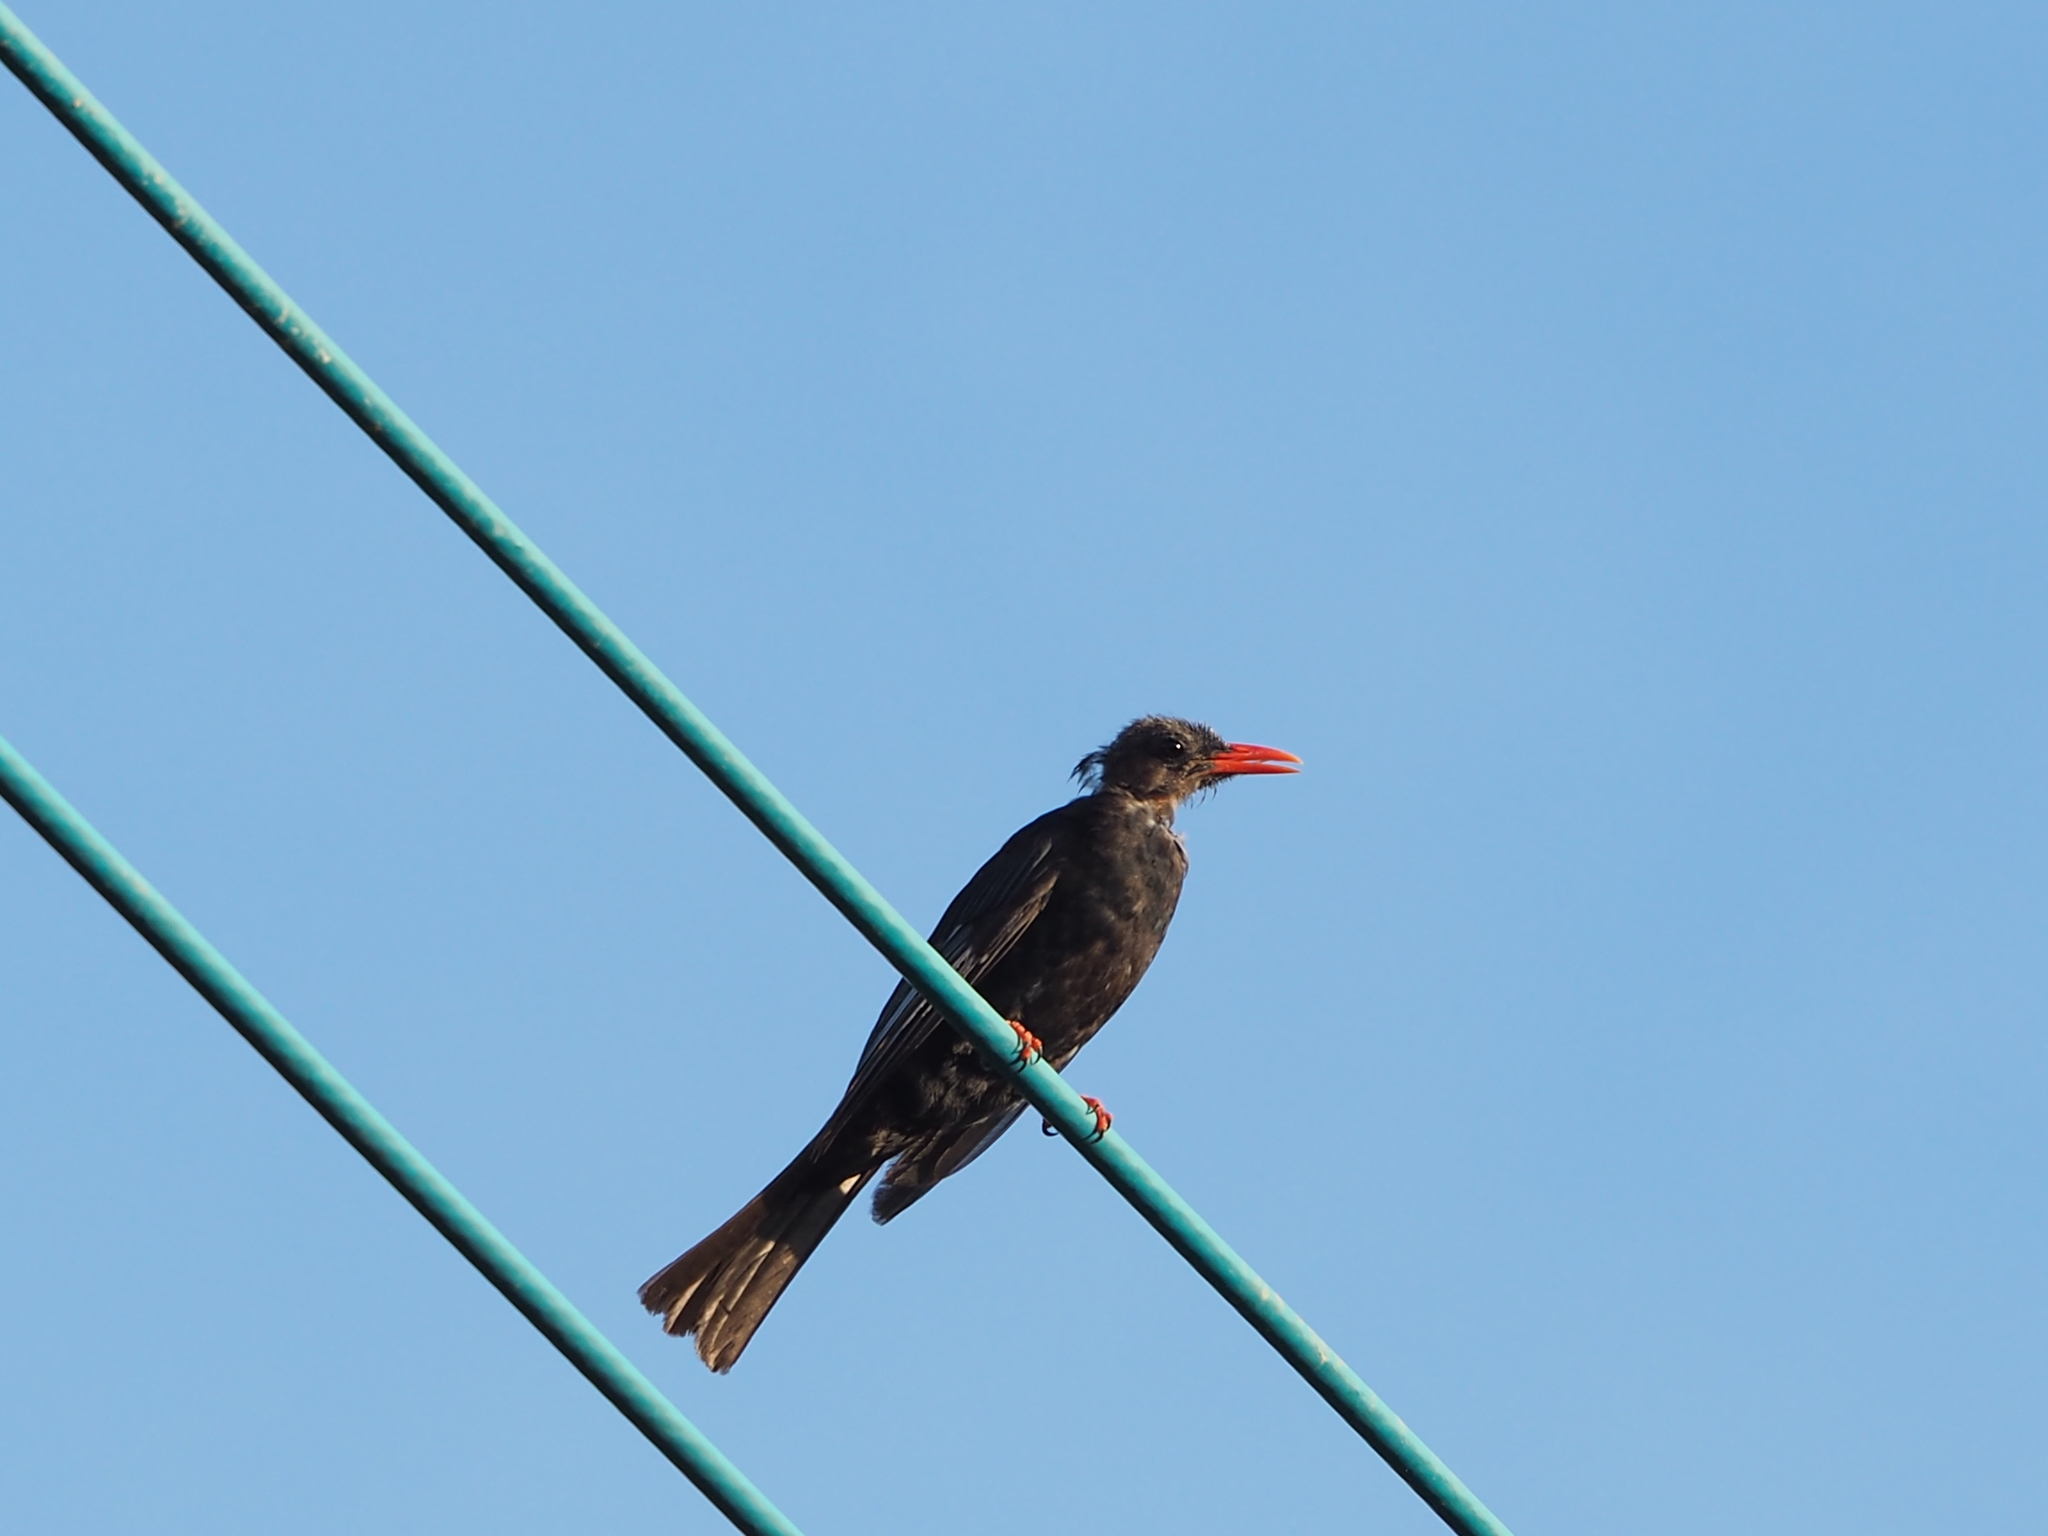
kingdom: Animalia
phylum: Chordata
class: Aves
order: Passeriformes
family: Pycnonotidae
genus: Hypsipetes
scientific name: Hypsipetes leucocephalus
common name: Black bulbul
